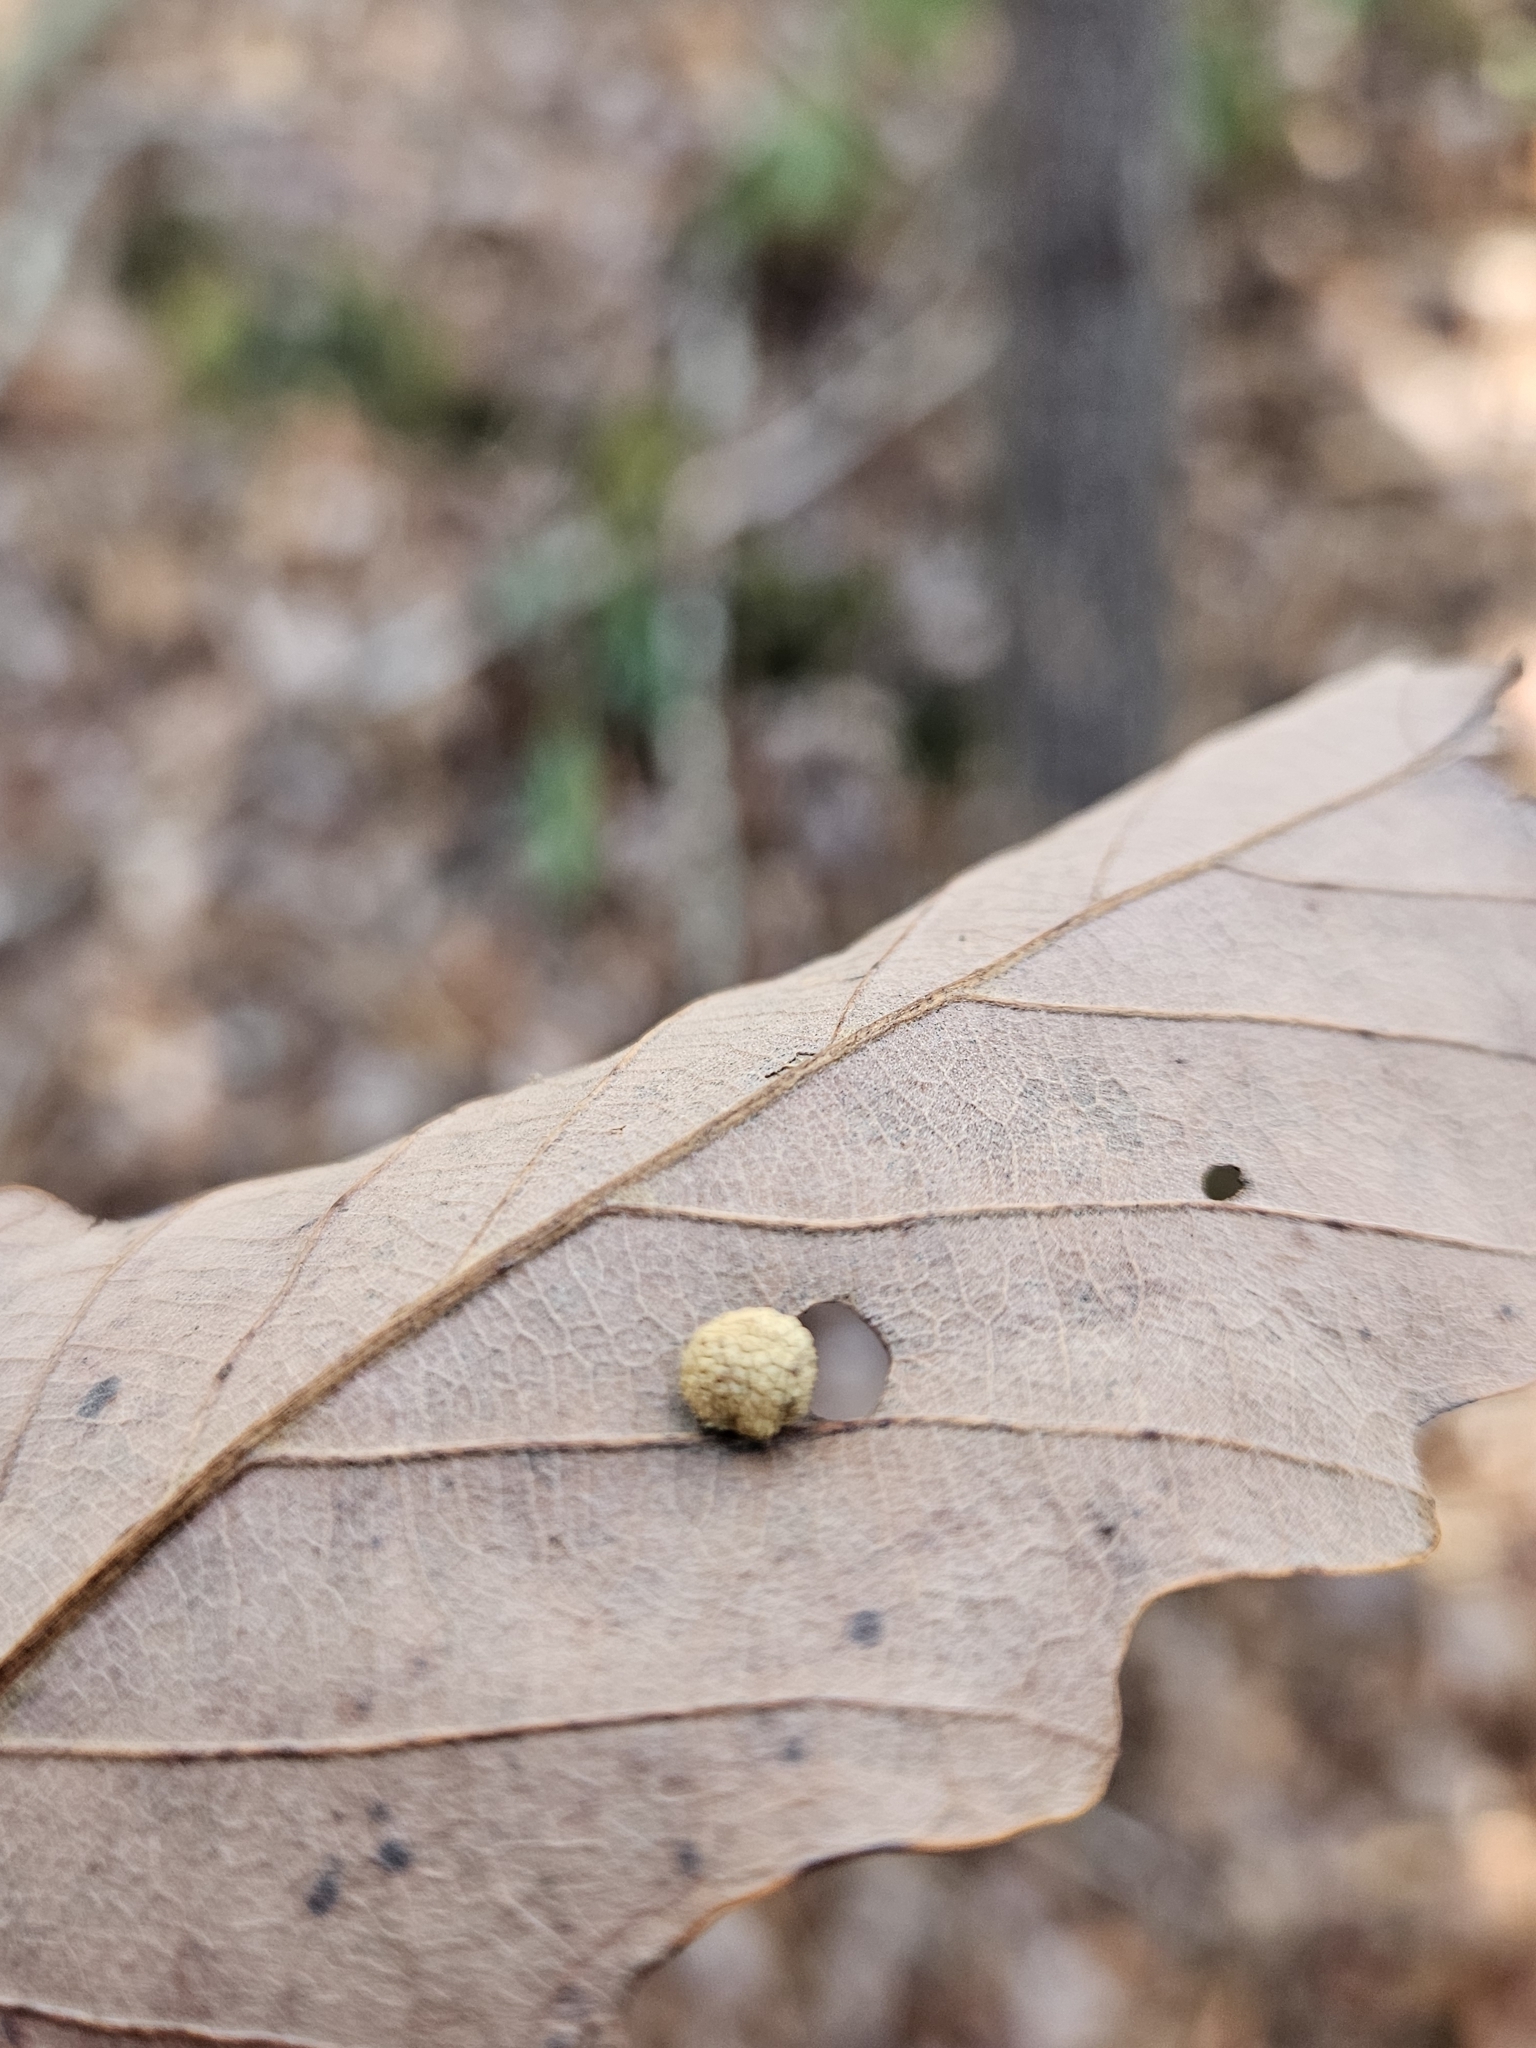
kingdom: Animalia
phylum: Arthropoda
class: Insecta
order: Hymenoptera
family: Cynipidae
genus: Acraspis
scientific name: Acraspis quercushirta
